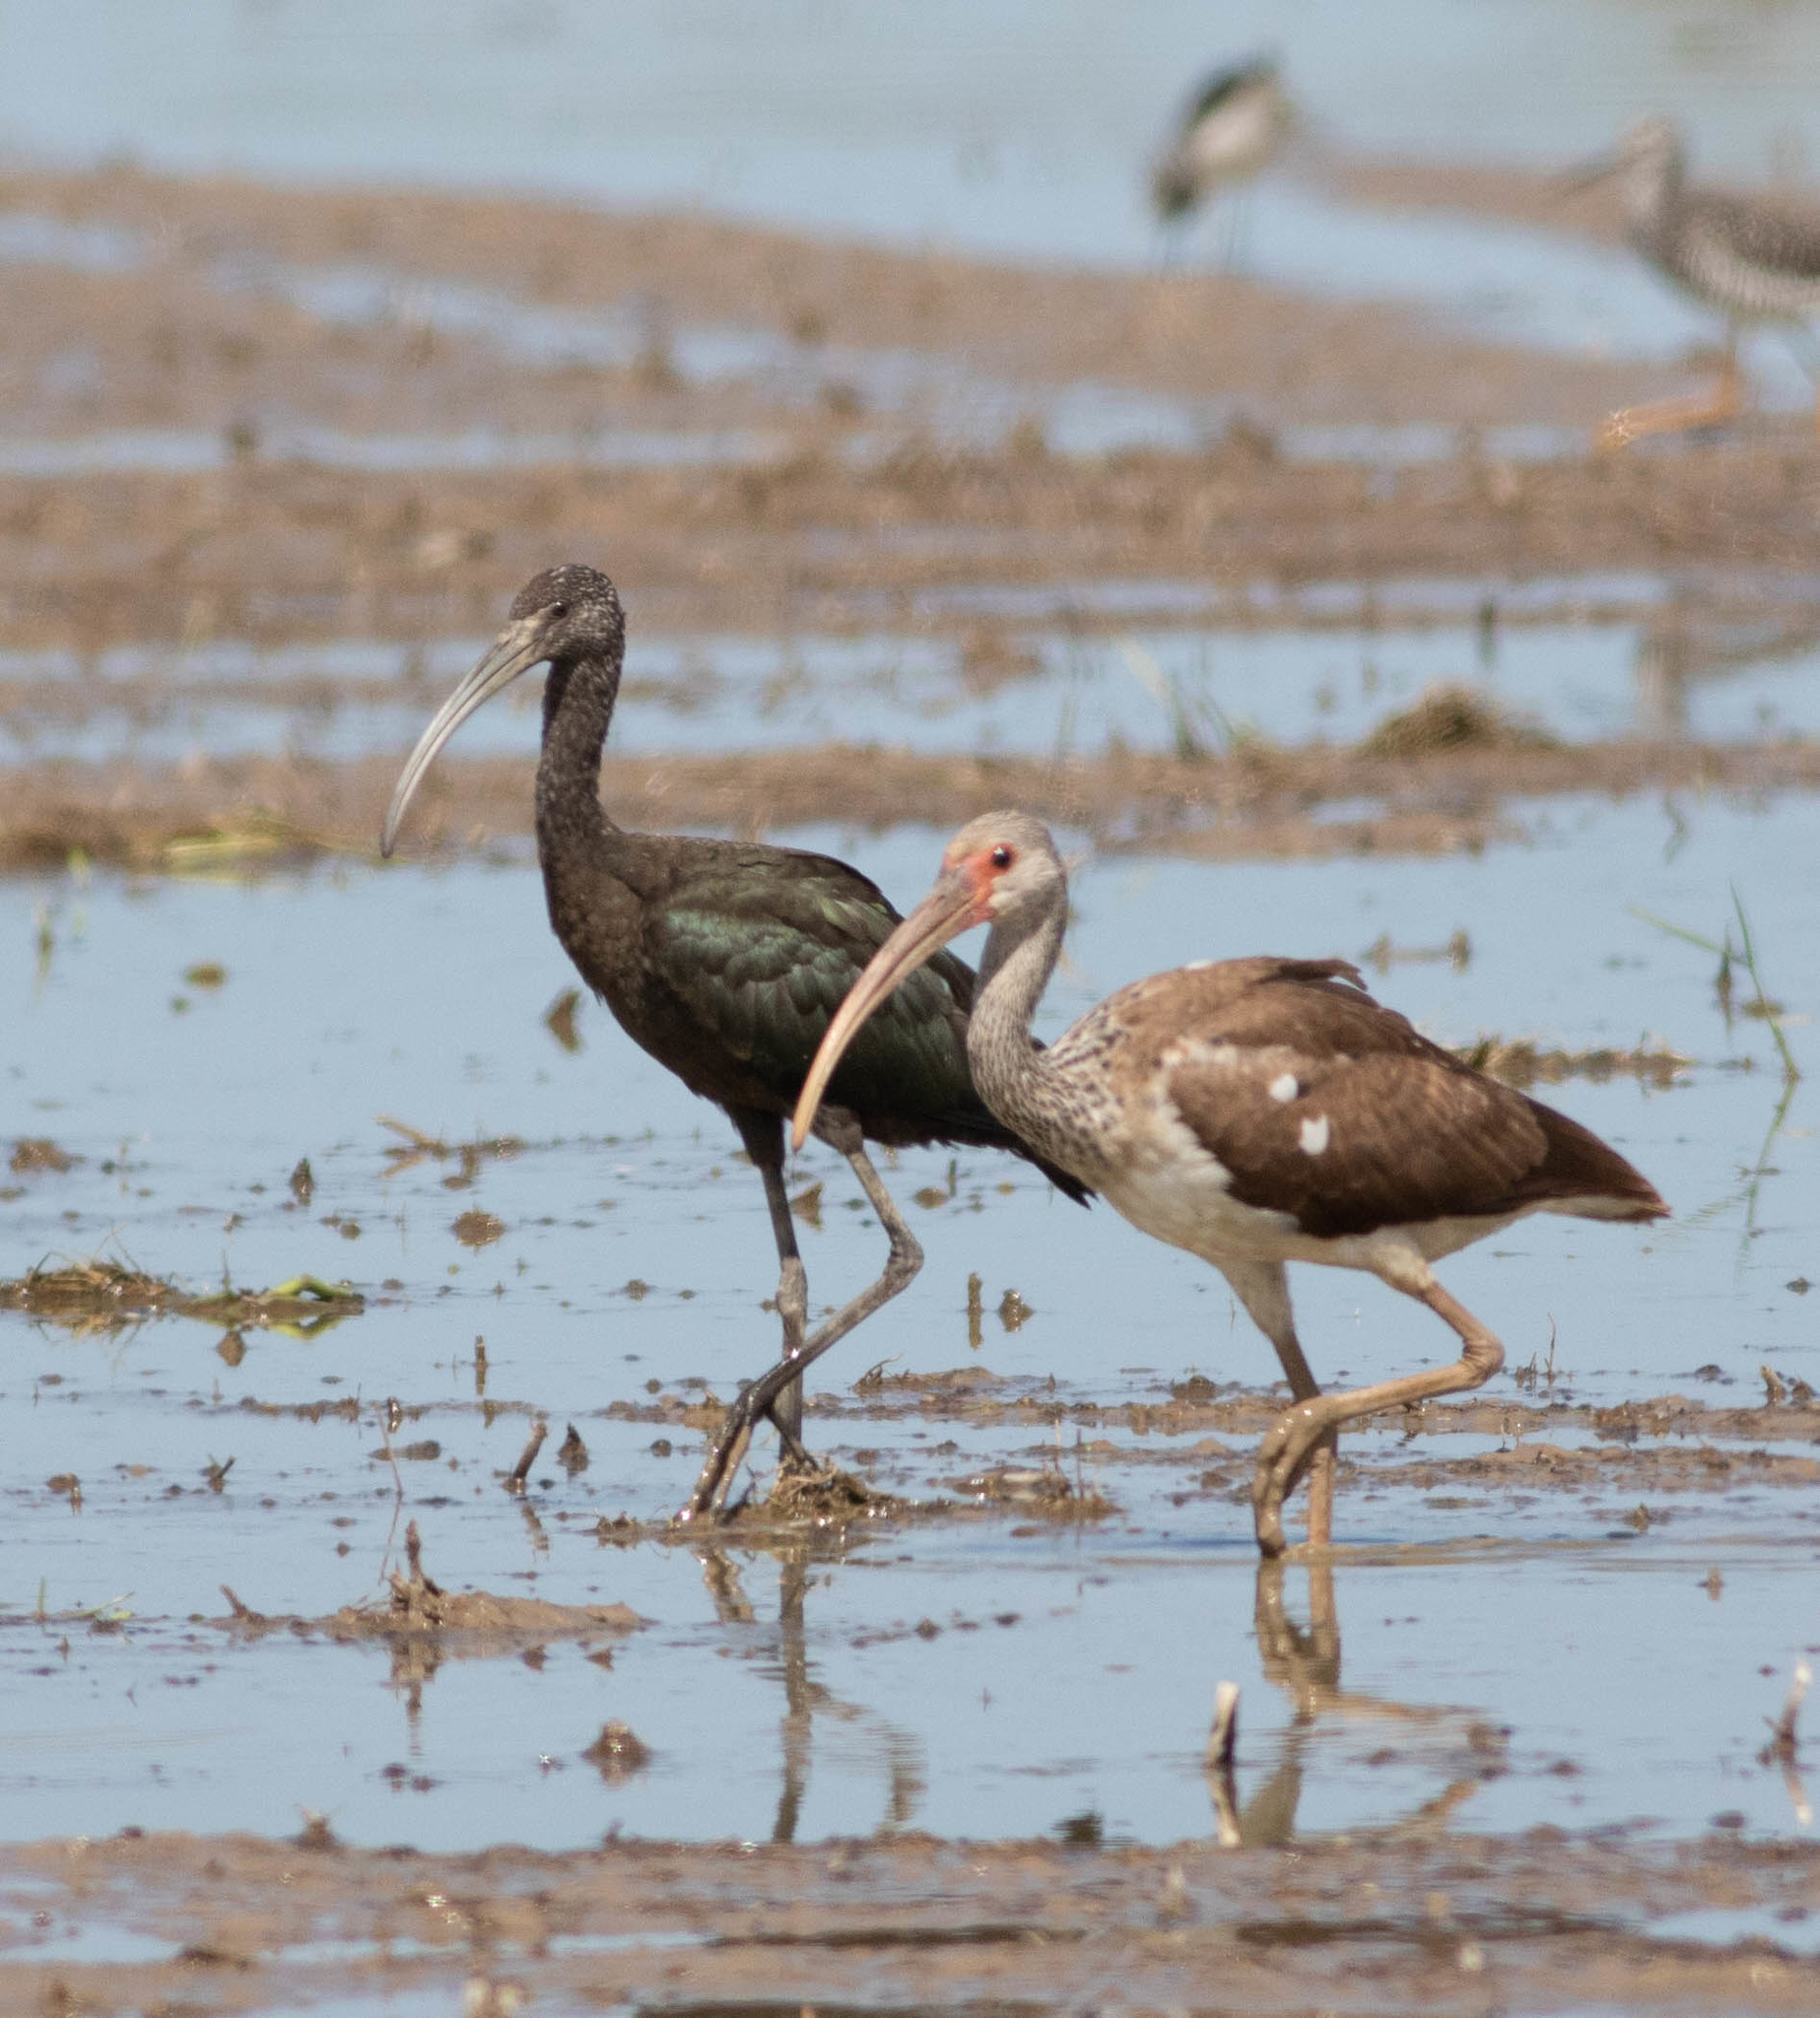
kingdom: Animalia
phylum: Chordata
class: Aves
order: Pelecaniformes
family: Threskiornithidae
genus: Eudocimus
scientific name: Eudocimus albus
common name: White ibis
